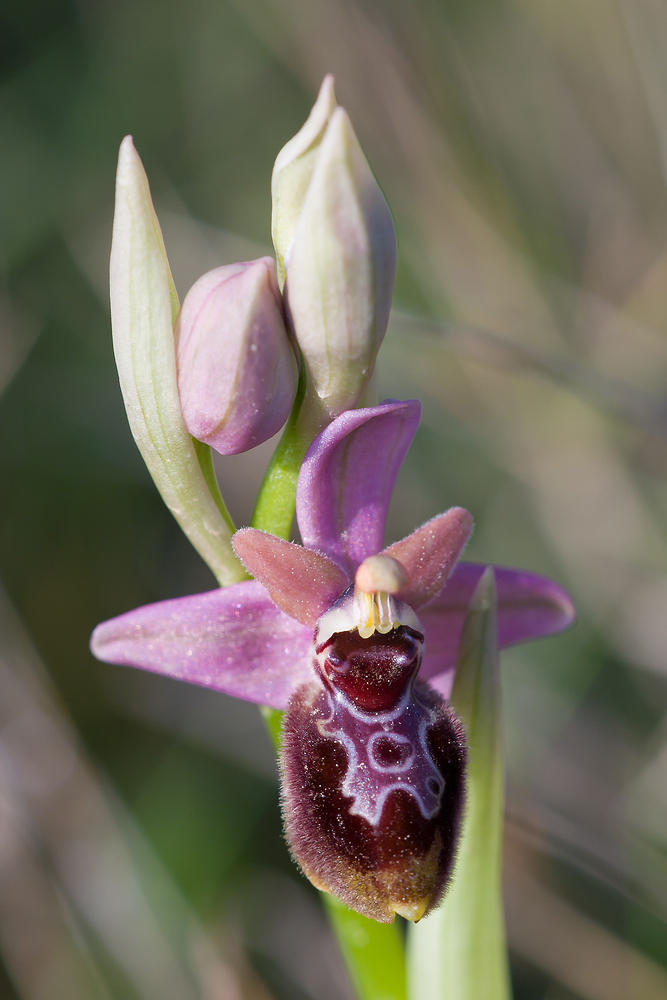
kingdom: Plantae
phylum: Tracheophyta
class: Liliopsida
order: Asparagales
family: Orchidaceae
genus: Ophrys
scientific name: Ophrys tenthredinifera
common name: Sawfly orchid
